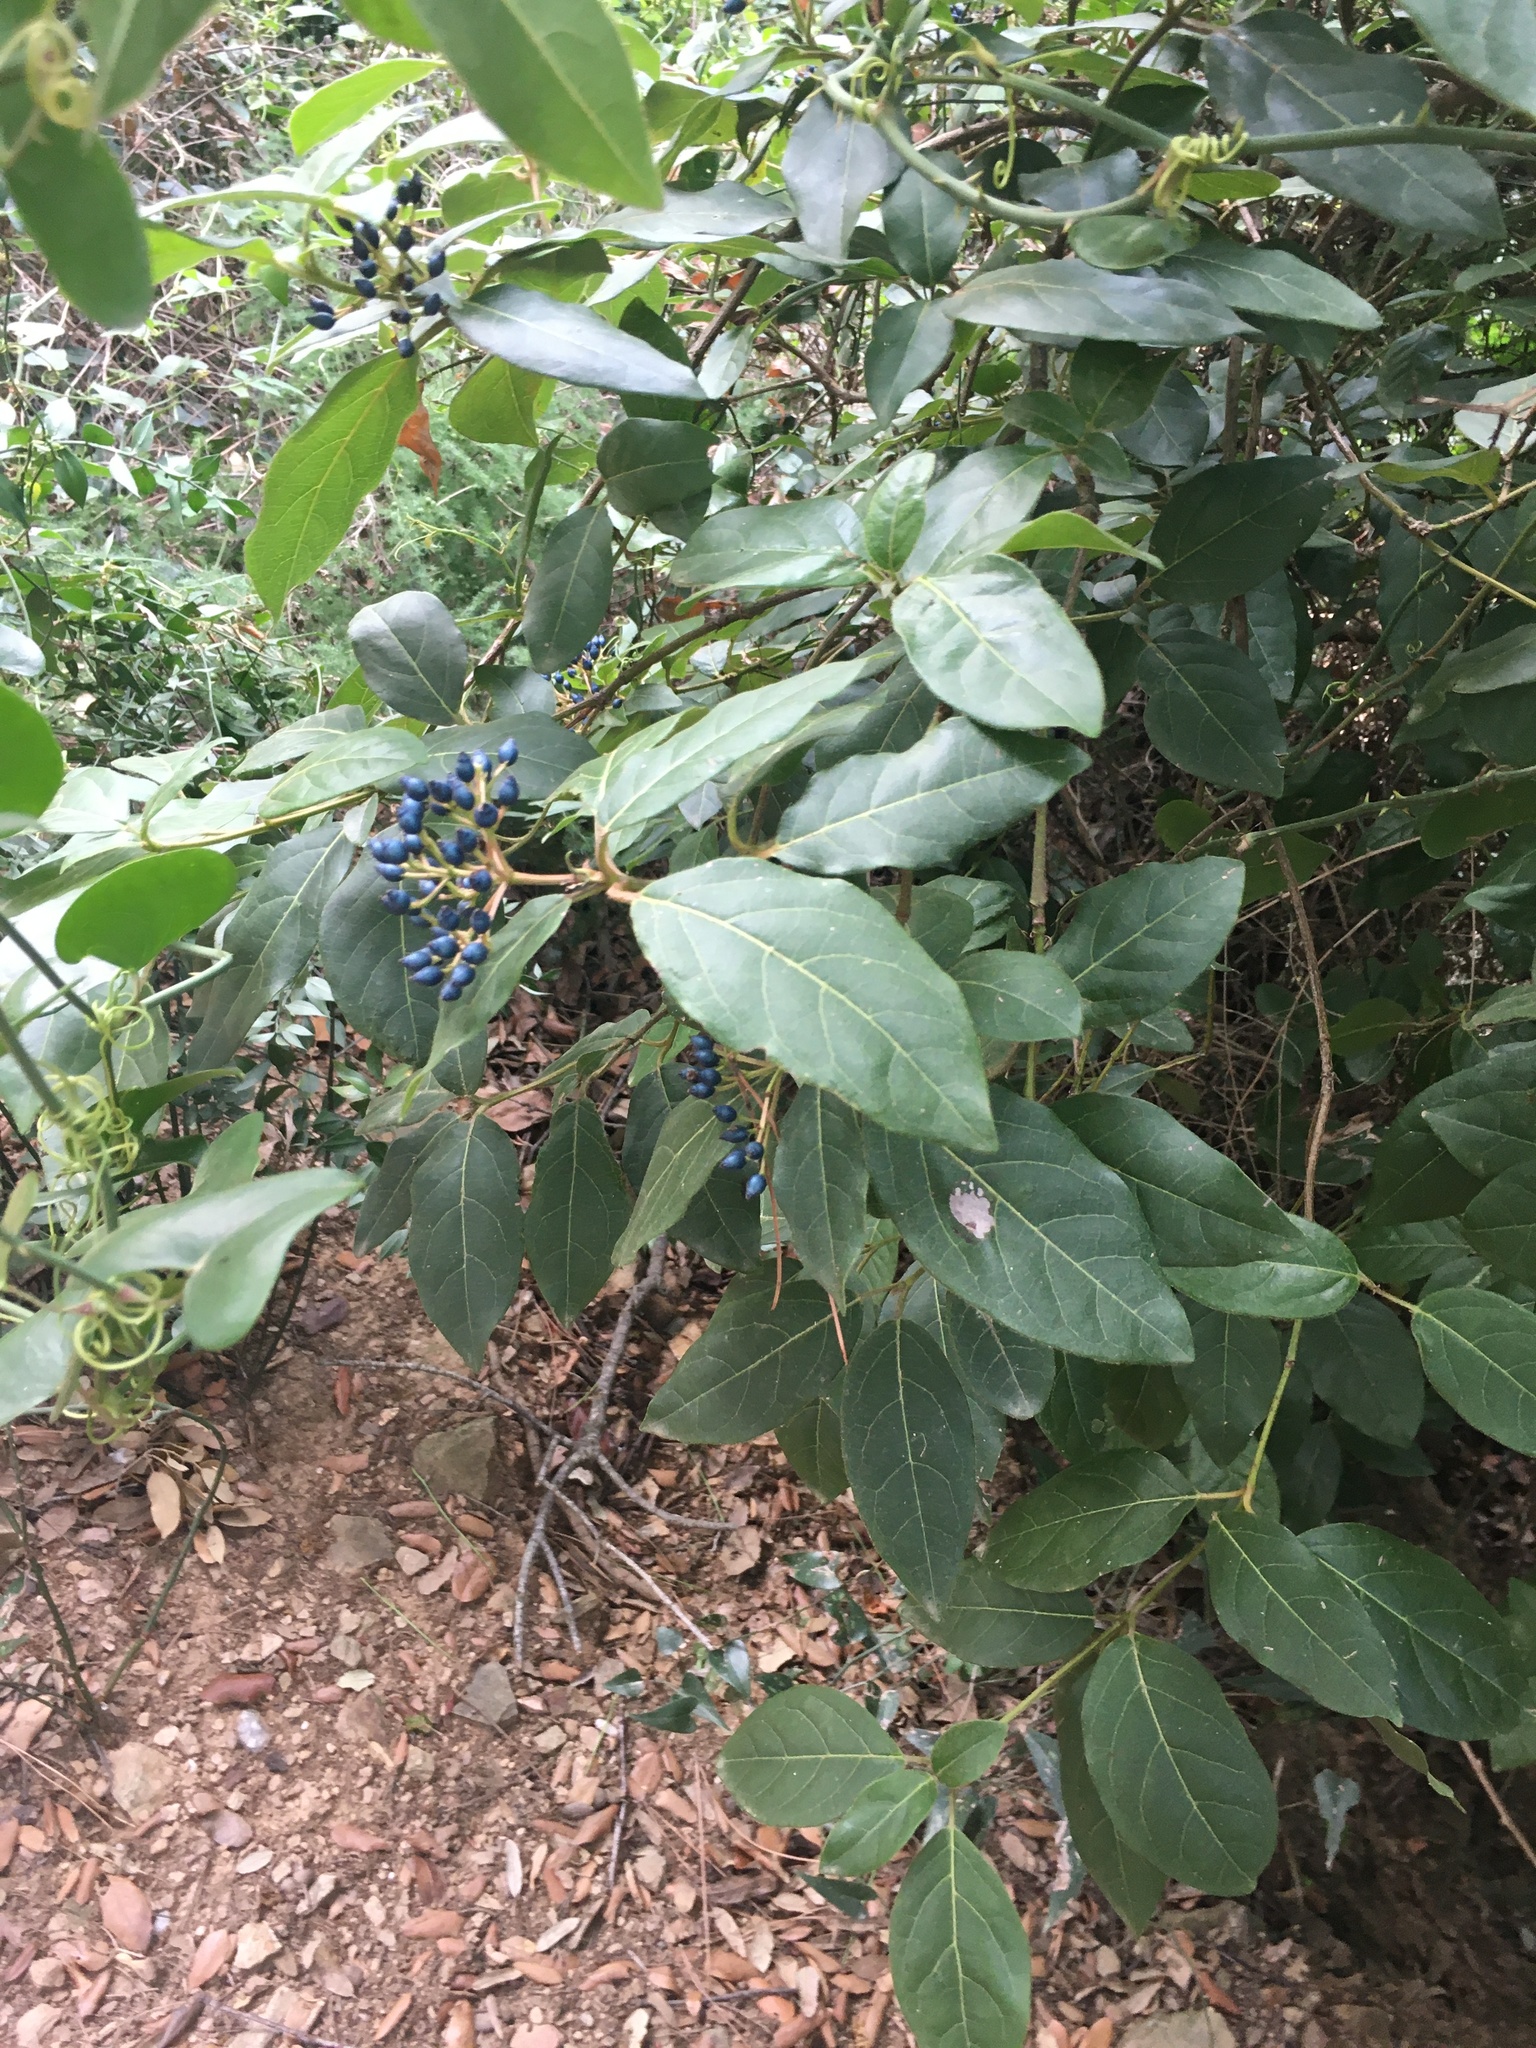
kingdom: Plantae
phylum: Tracheophyta
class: Magnoliopsida
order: Dipsacales
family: Viburnaceae
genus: Viburnum
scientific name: Viburnum tinus
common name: Laurustinus
